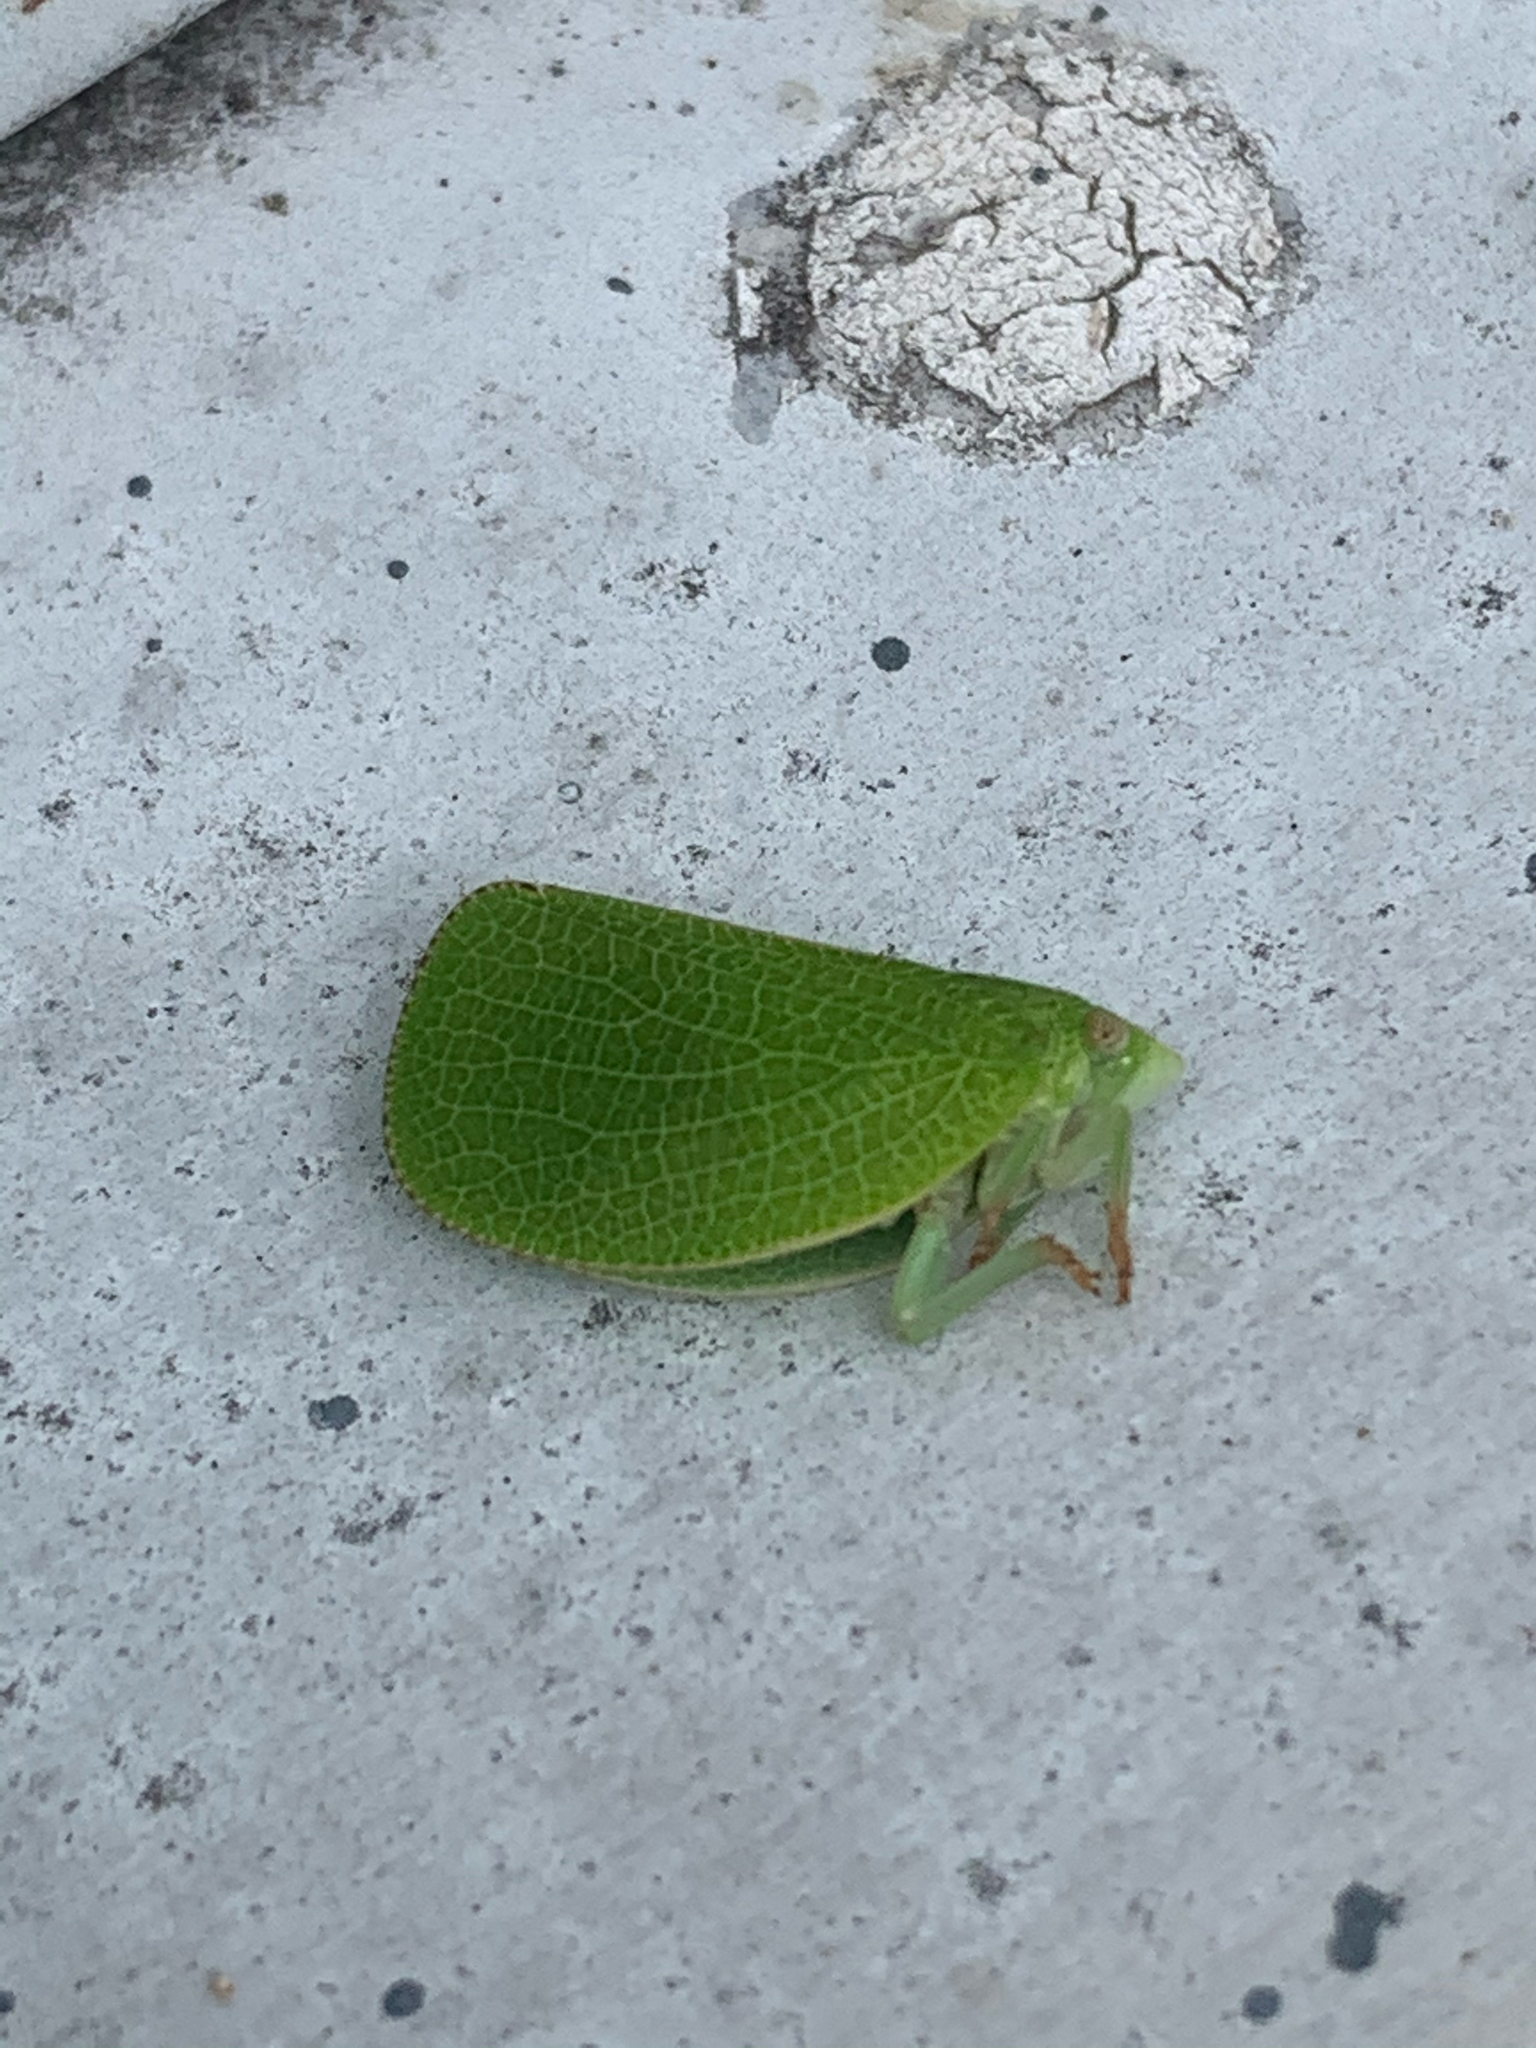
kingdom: Animalia
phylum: Arthropoda
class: Insecta
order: Hemiptera
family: Acanaloniidae
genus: Acanalonia
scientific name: Acanalonia conica
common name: Green cone-headed planthopper
